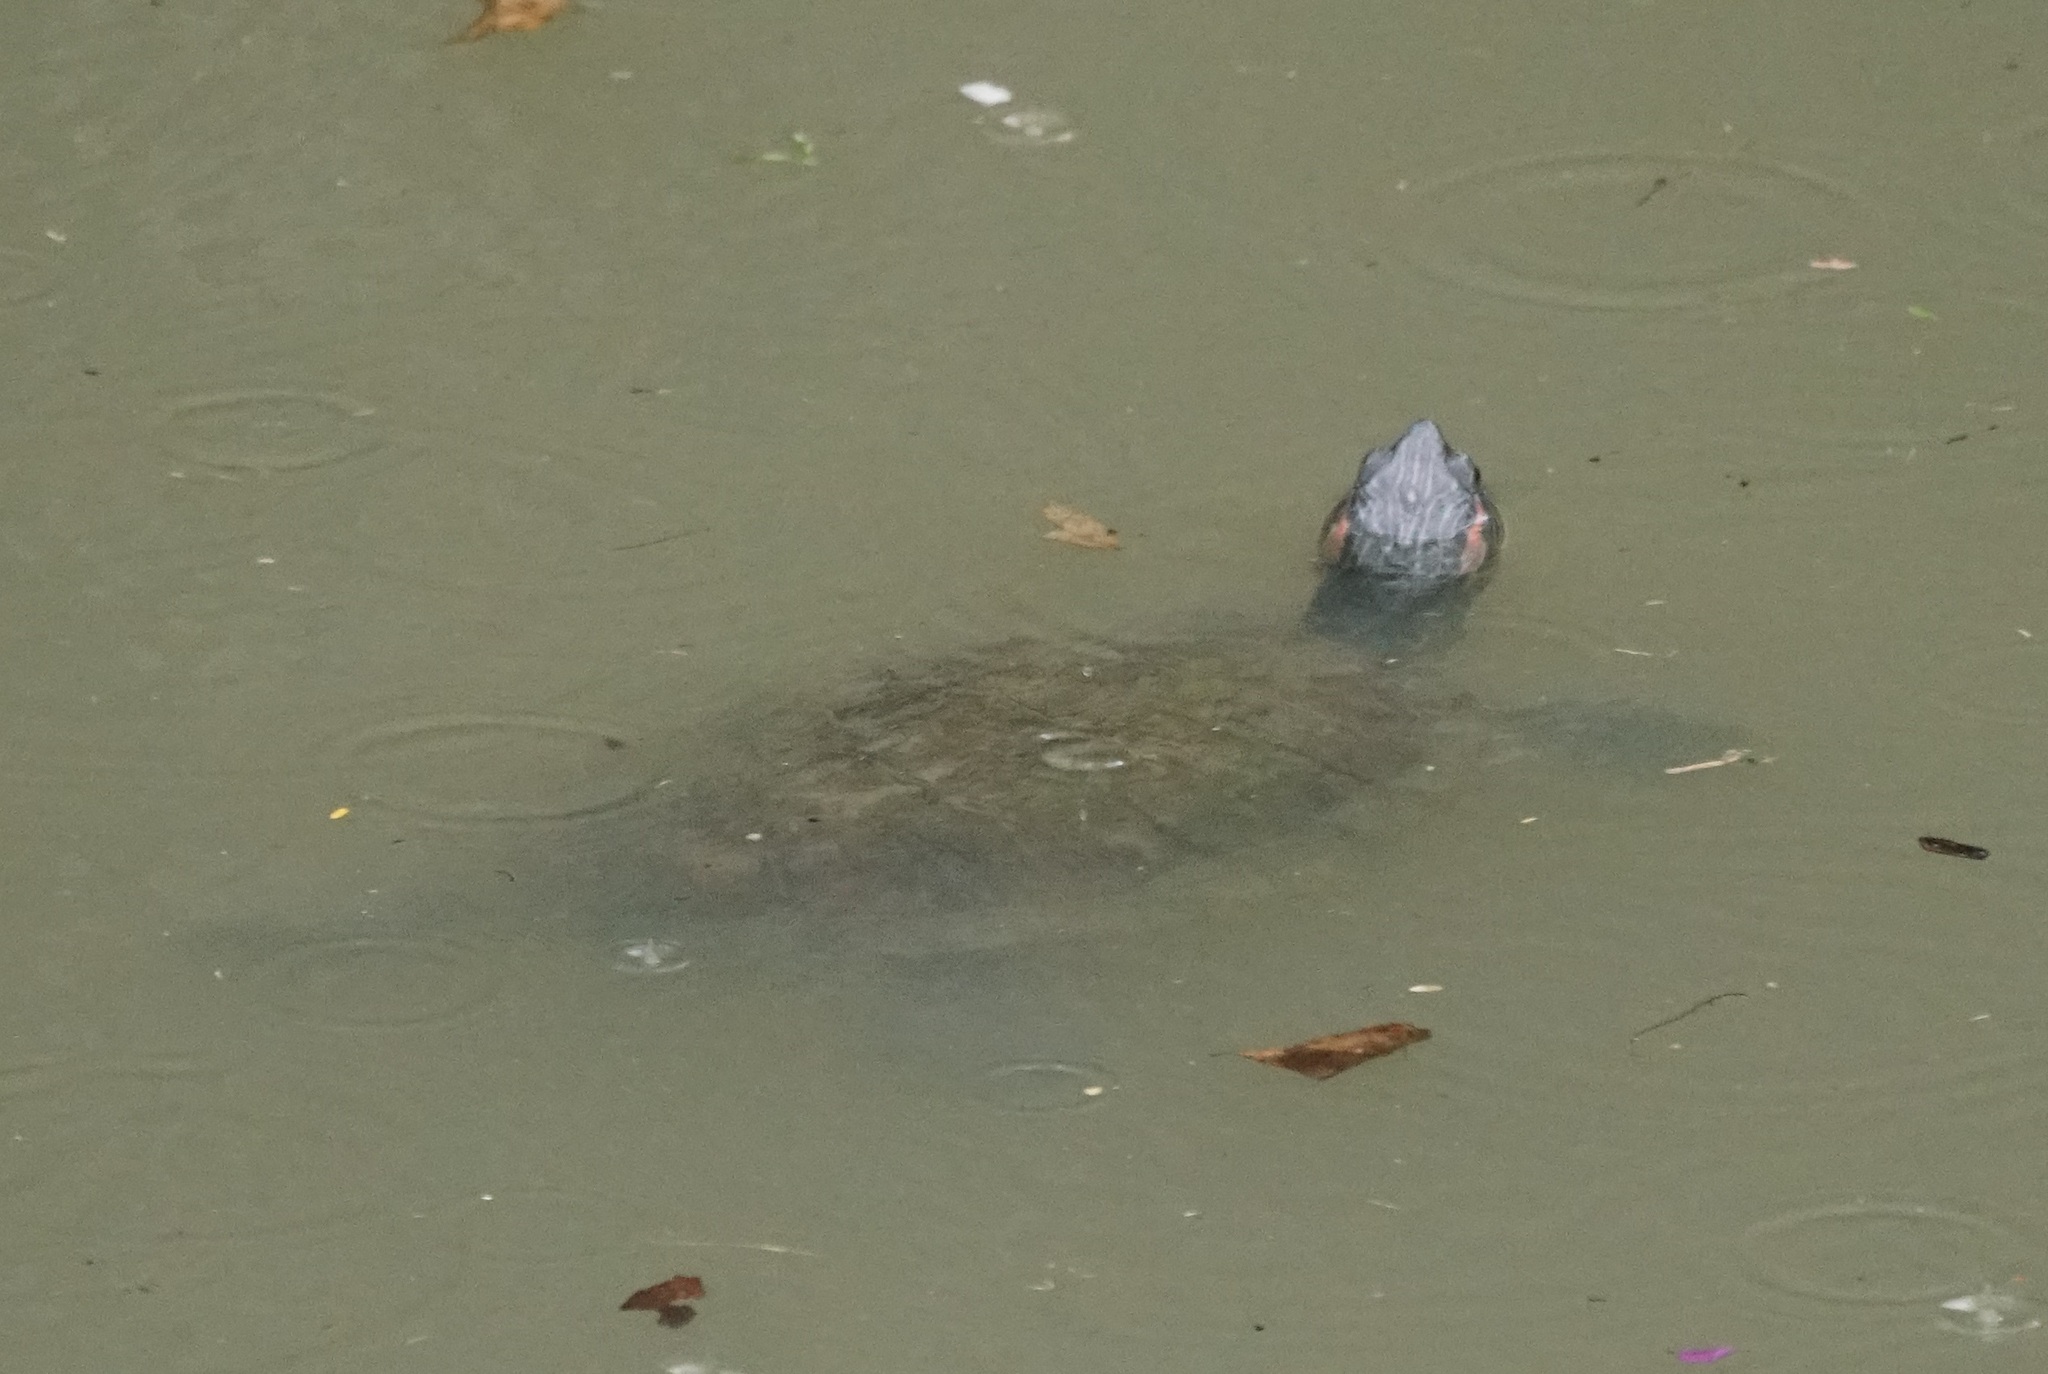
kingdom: Animalia
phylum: Chordata
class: Testudines
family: Emydidae
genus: Trachemys
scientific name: Trachemys scripta
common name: Slider
